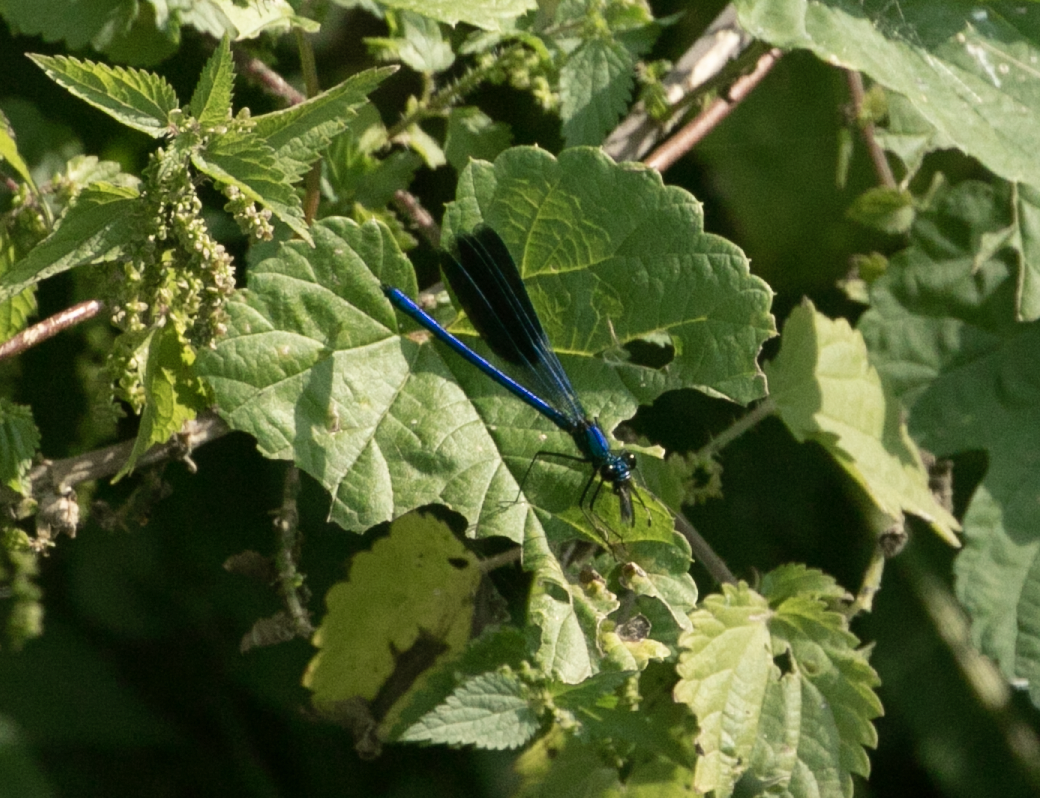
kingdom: Animalia
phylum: Arthropoda
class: Insecta
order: Odonata
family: Calopterygidae
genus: Calopteryx
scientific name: Calopteryx splendens
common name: Banded demoiselle
